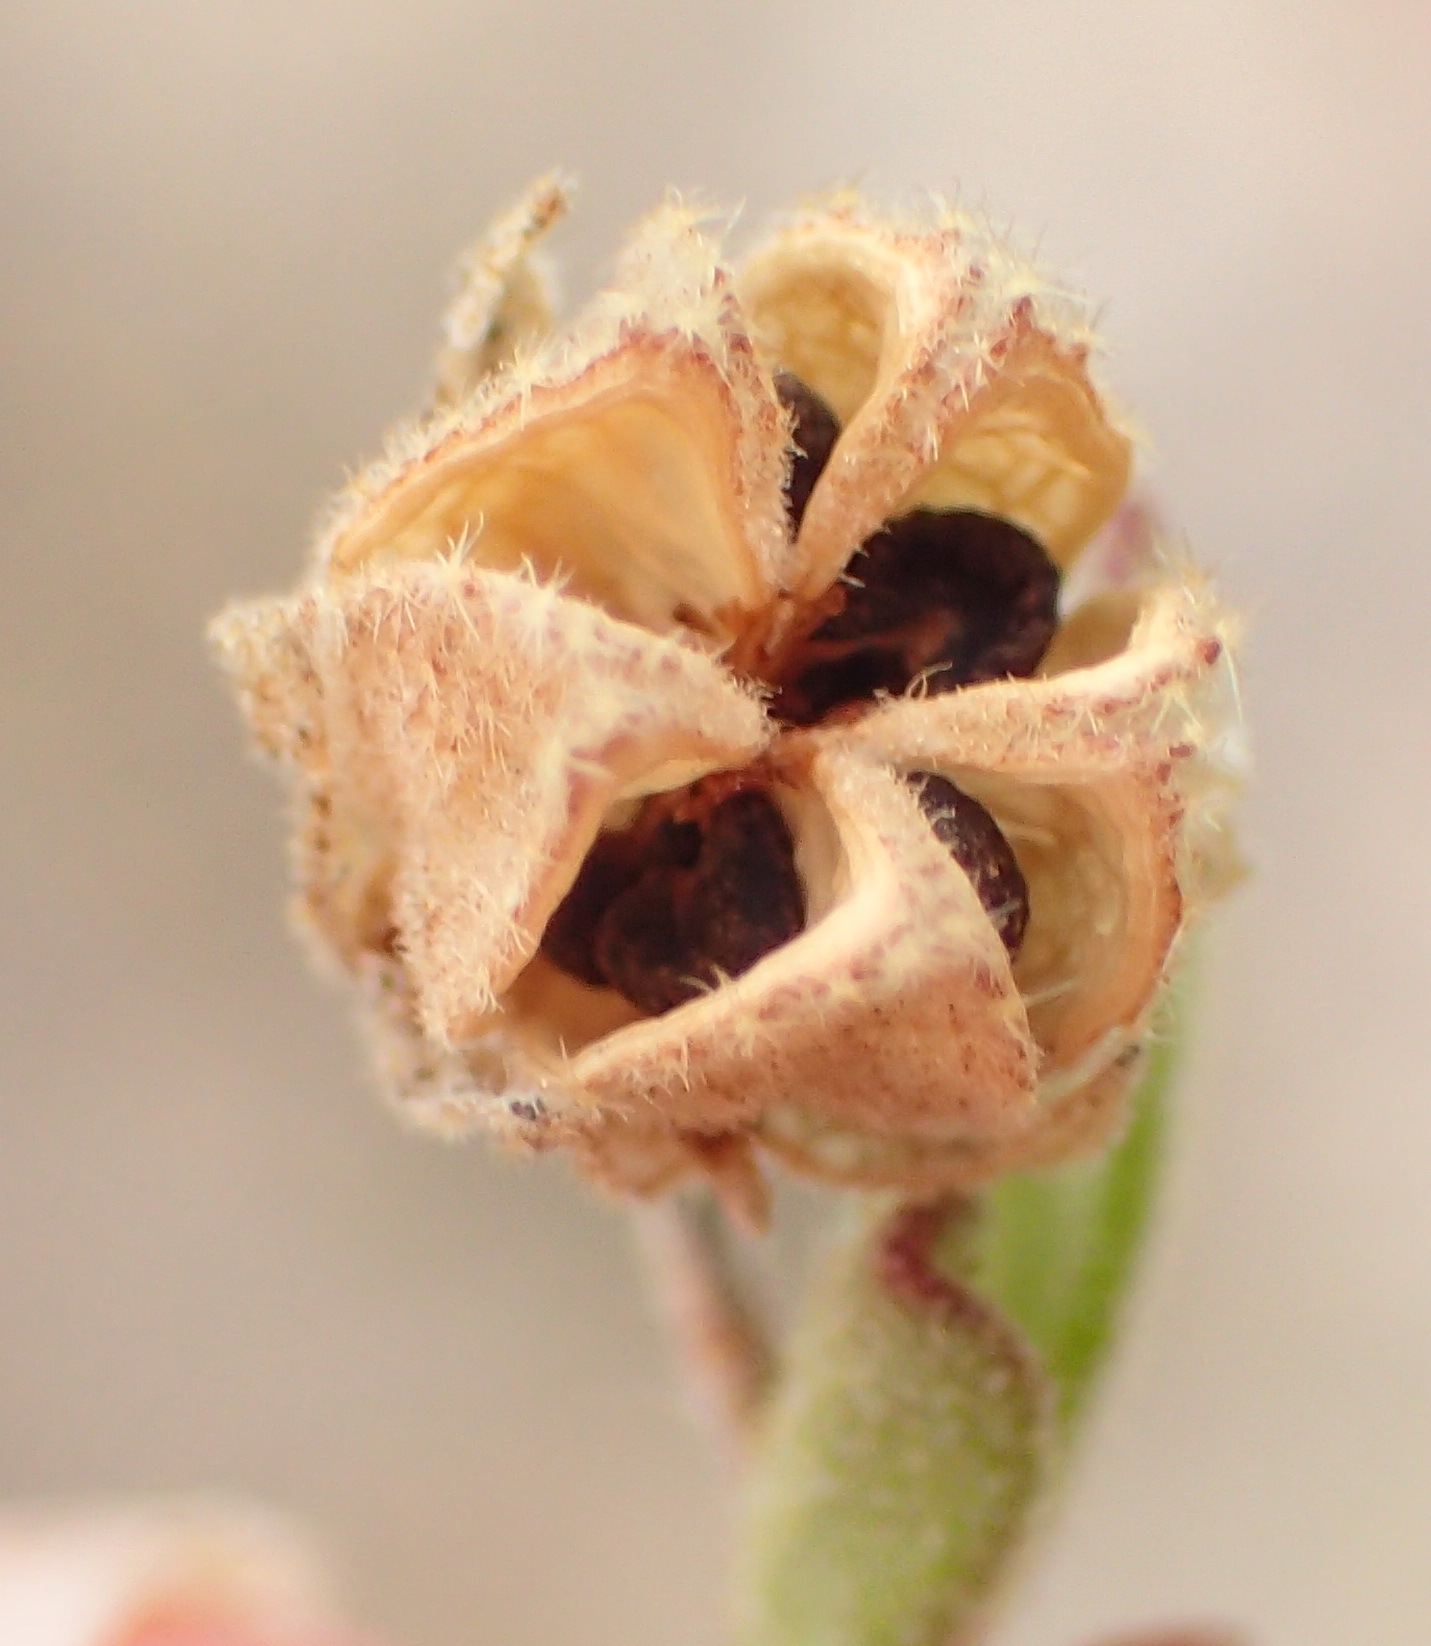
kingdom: Plantae
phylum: Tracheophyta
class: Magnoliopsida
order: Malvales
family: Malvaceae
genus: Hermannia
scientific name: Hermannia flammula
